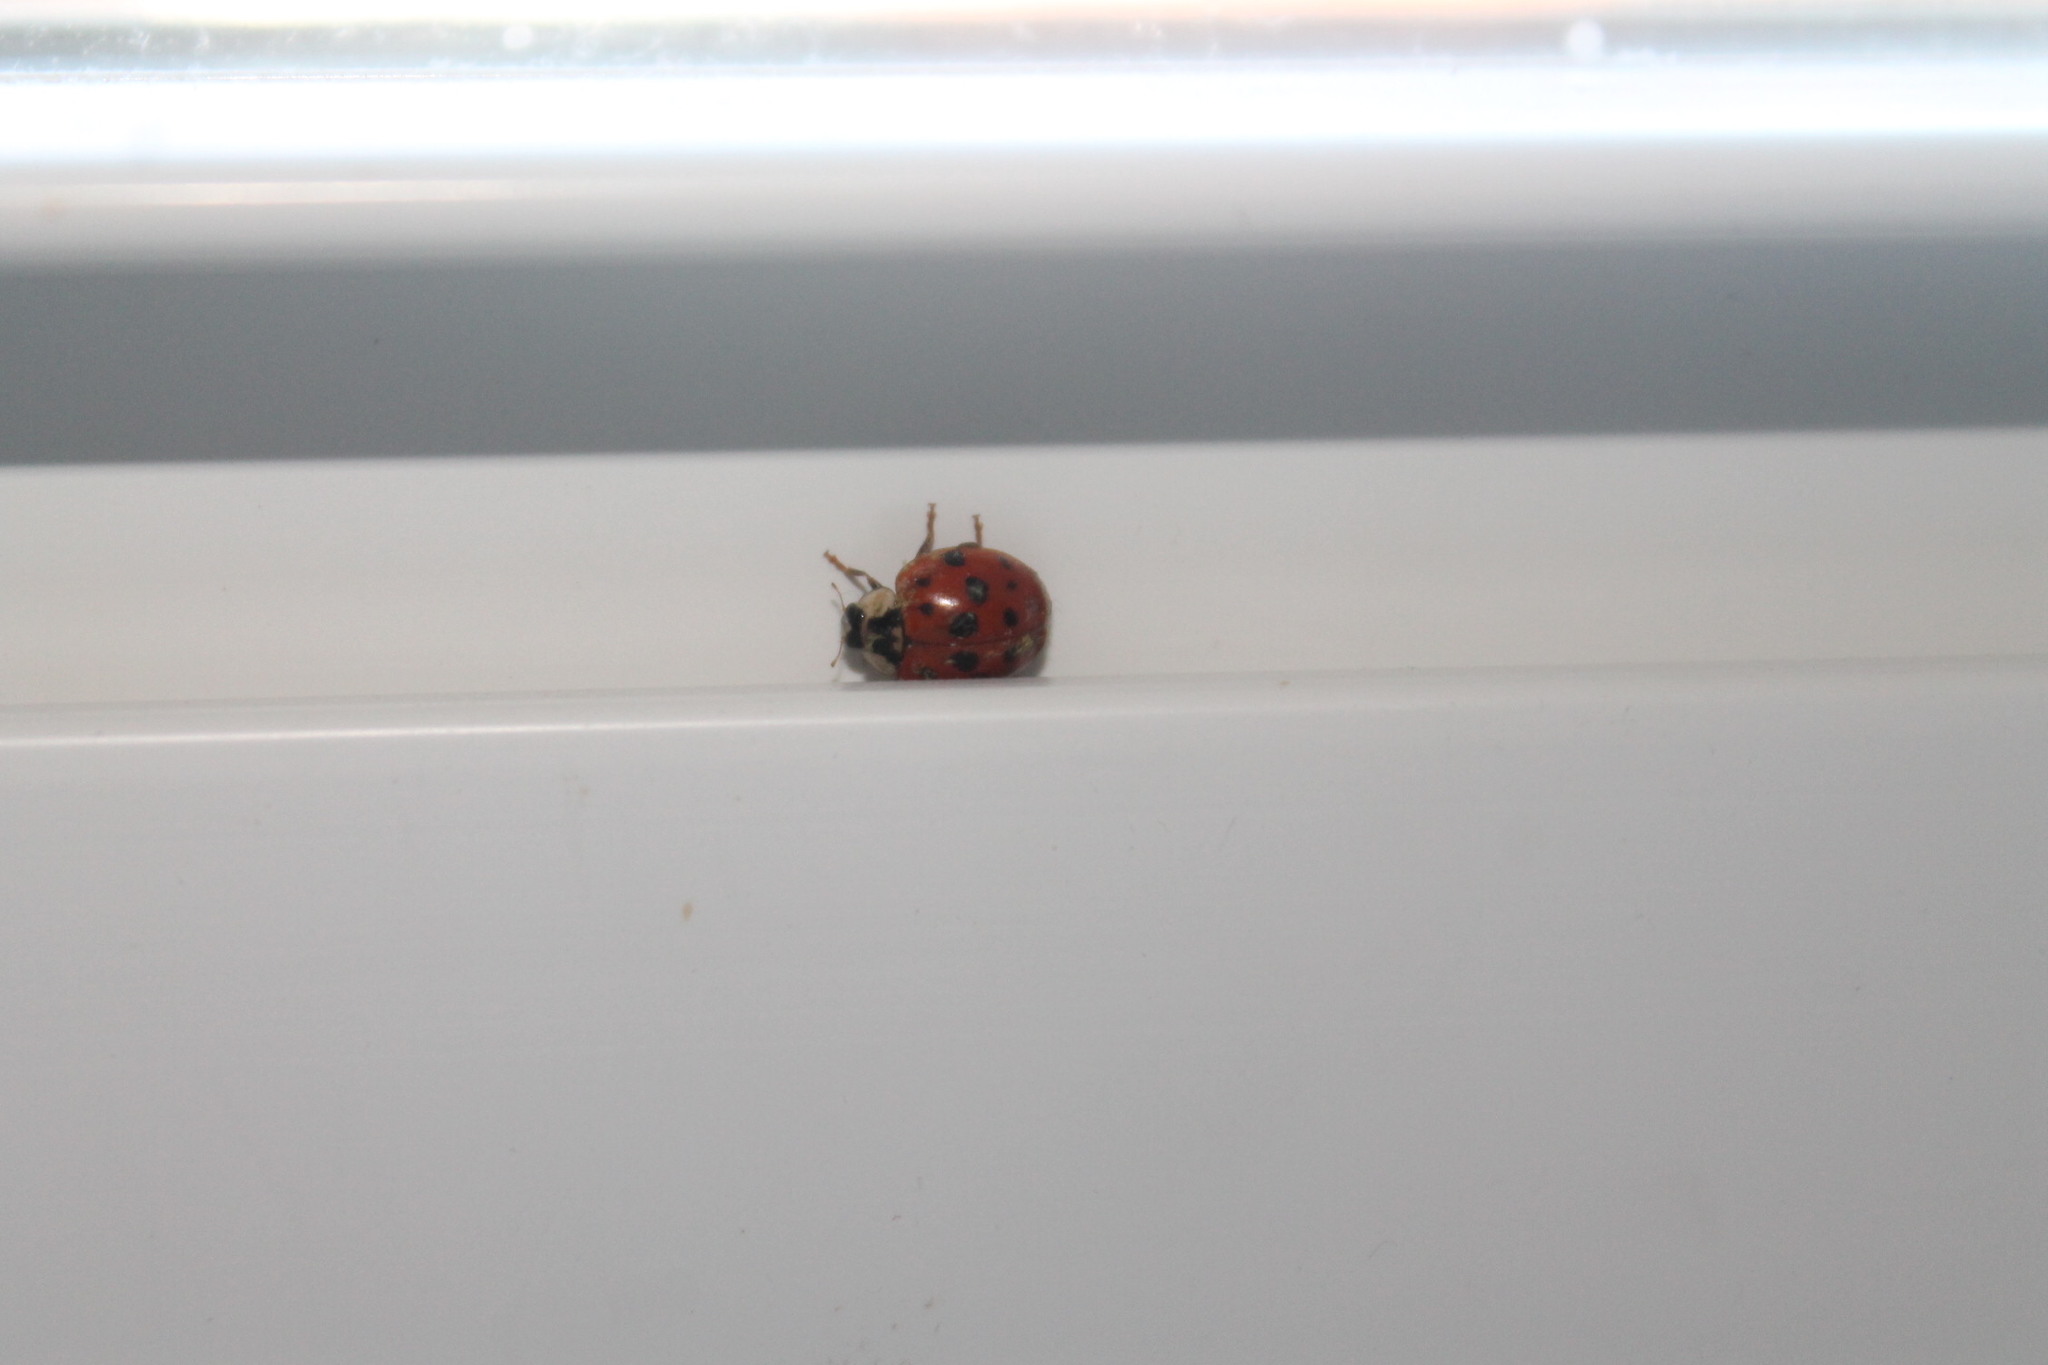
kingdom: Animalia
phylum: Arthropoda
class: Insecta
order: Coleoptera
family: Coccinellidae
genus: Harmonia
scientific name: Harmonia axyridis
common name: Harlequin ladybird
